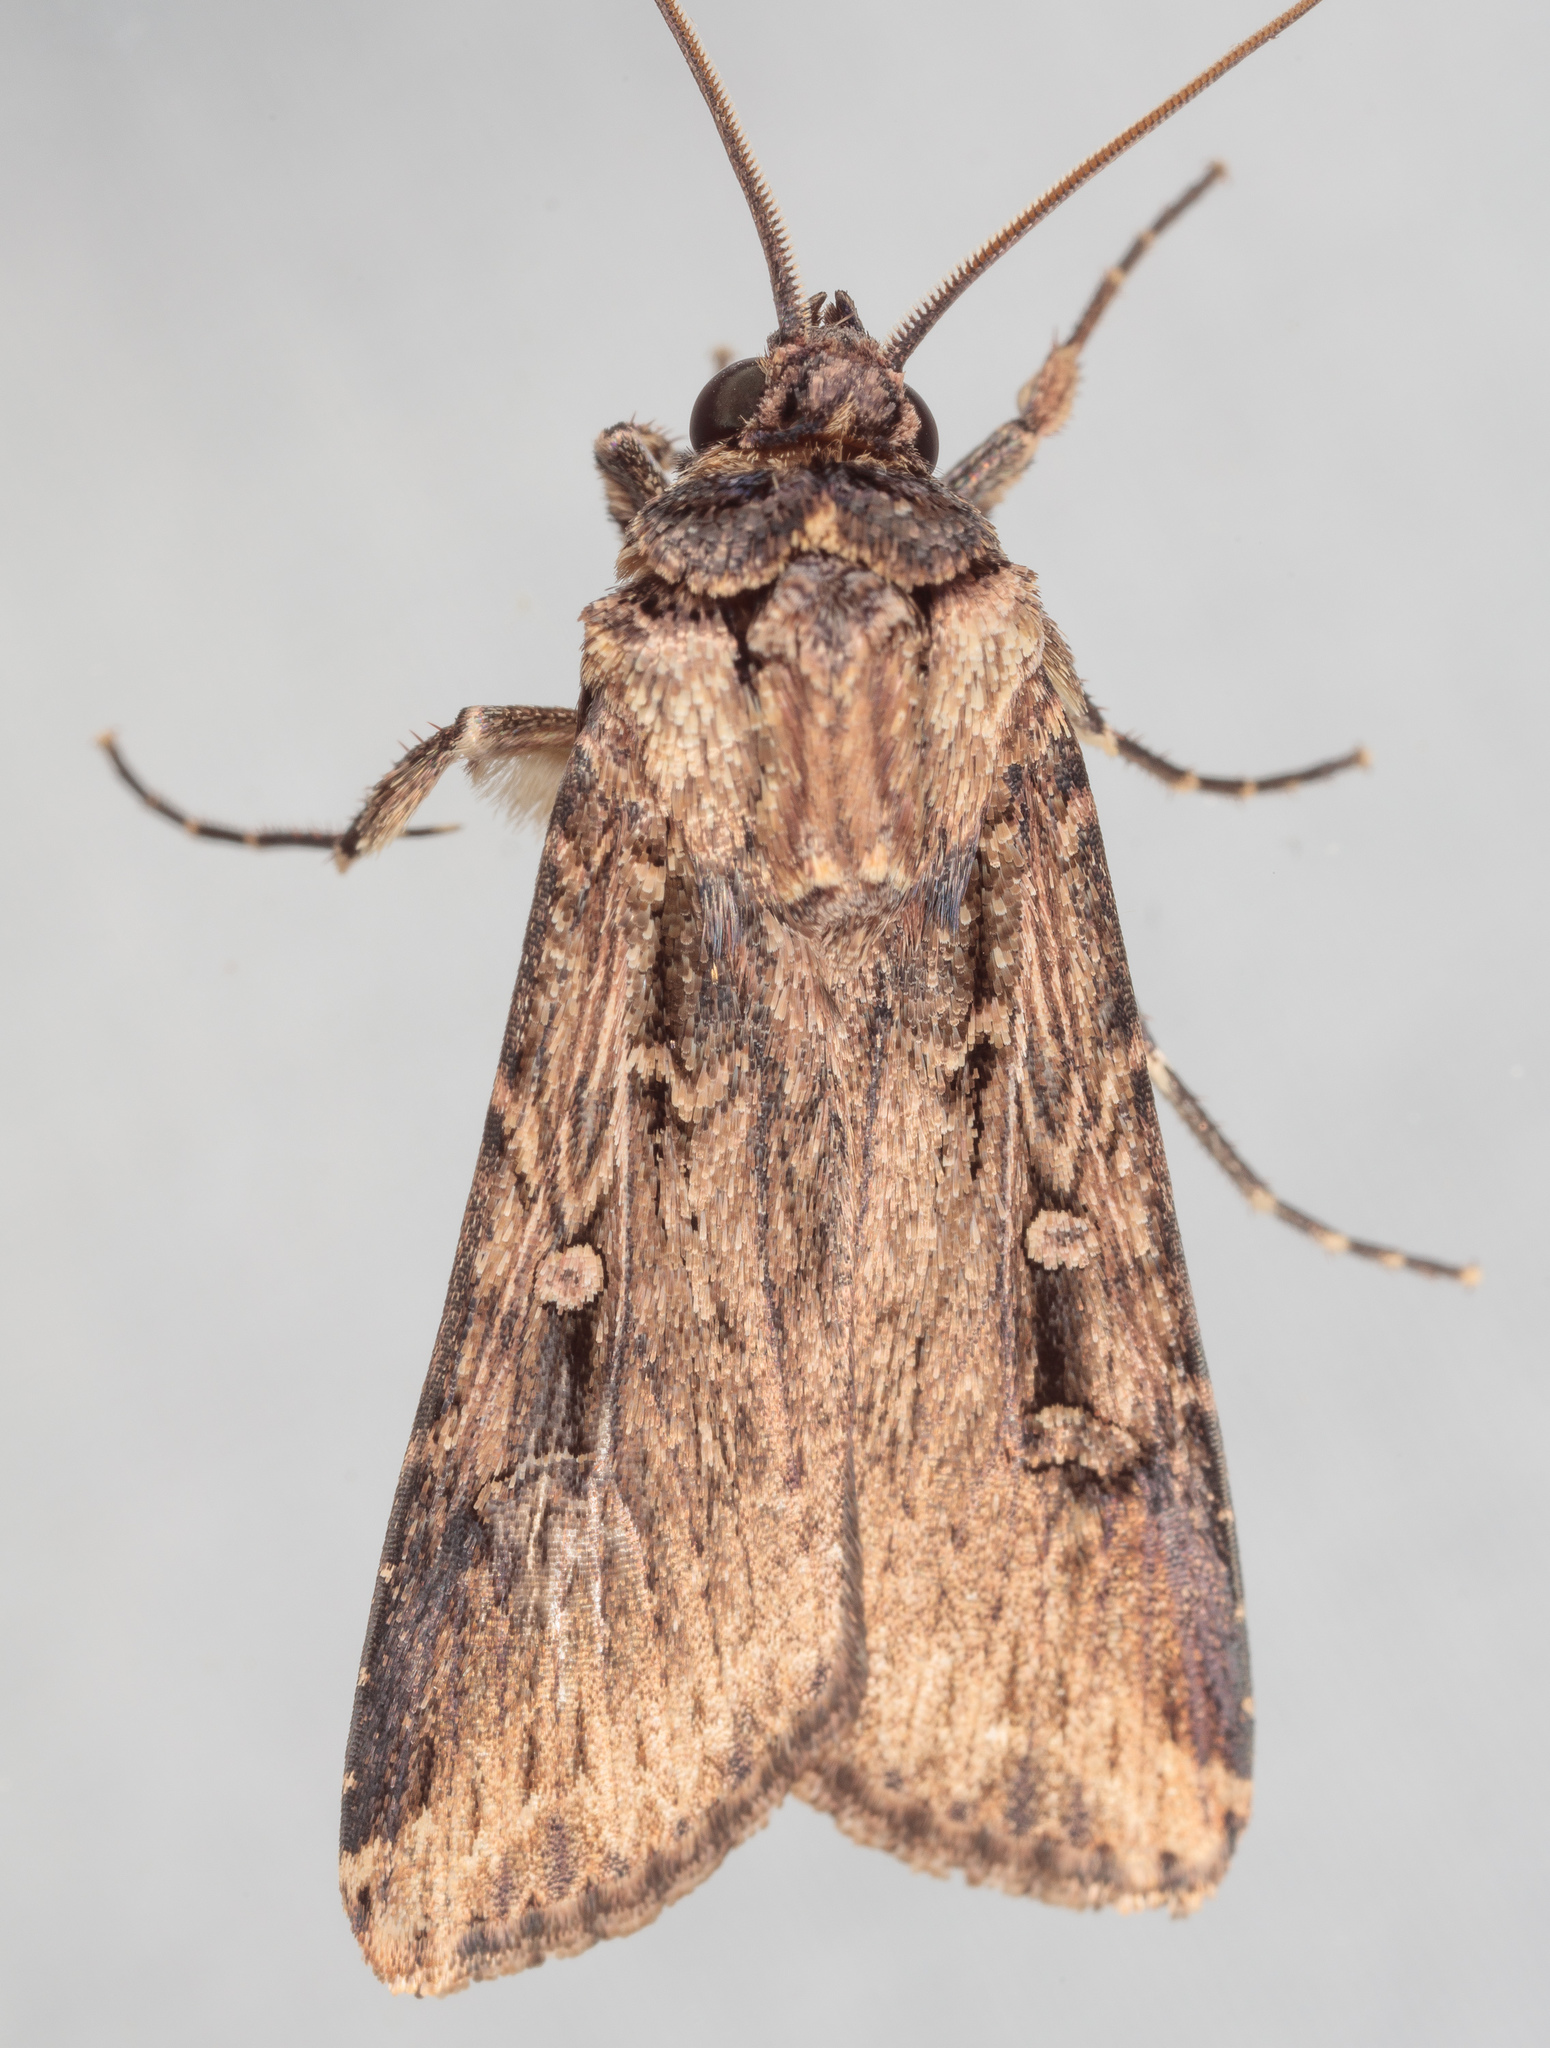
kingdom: Animalia
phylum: Arthropoda
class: Insecta
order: Lepidoptera
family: Noctuidae
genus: Feltia
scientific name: Feltia subterranea
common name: Granulate cutworm
